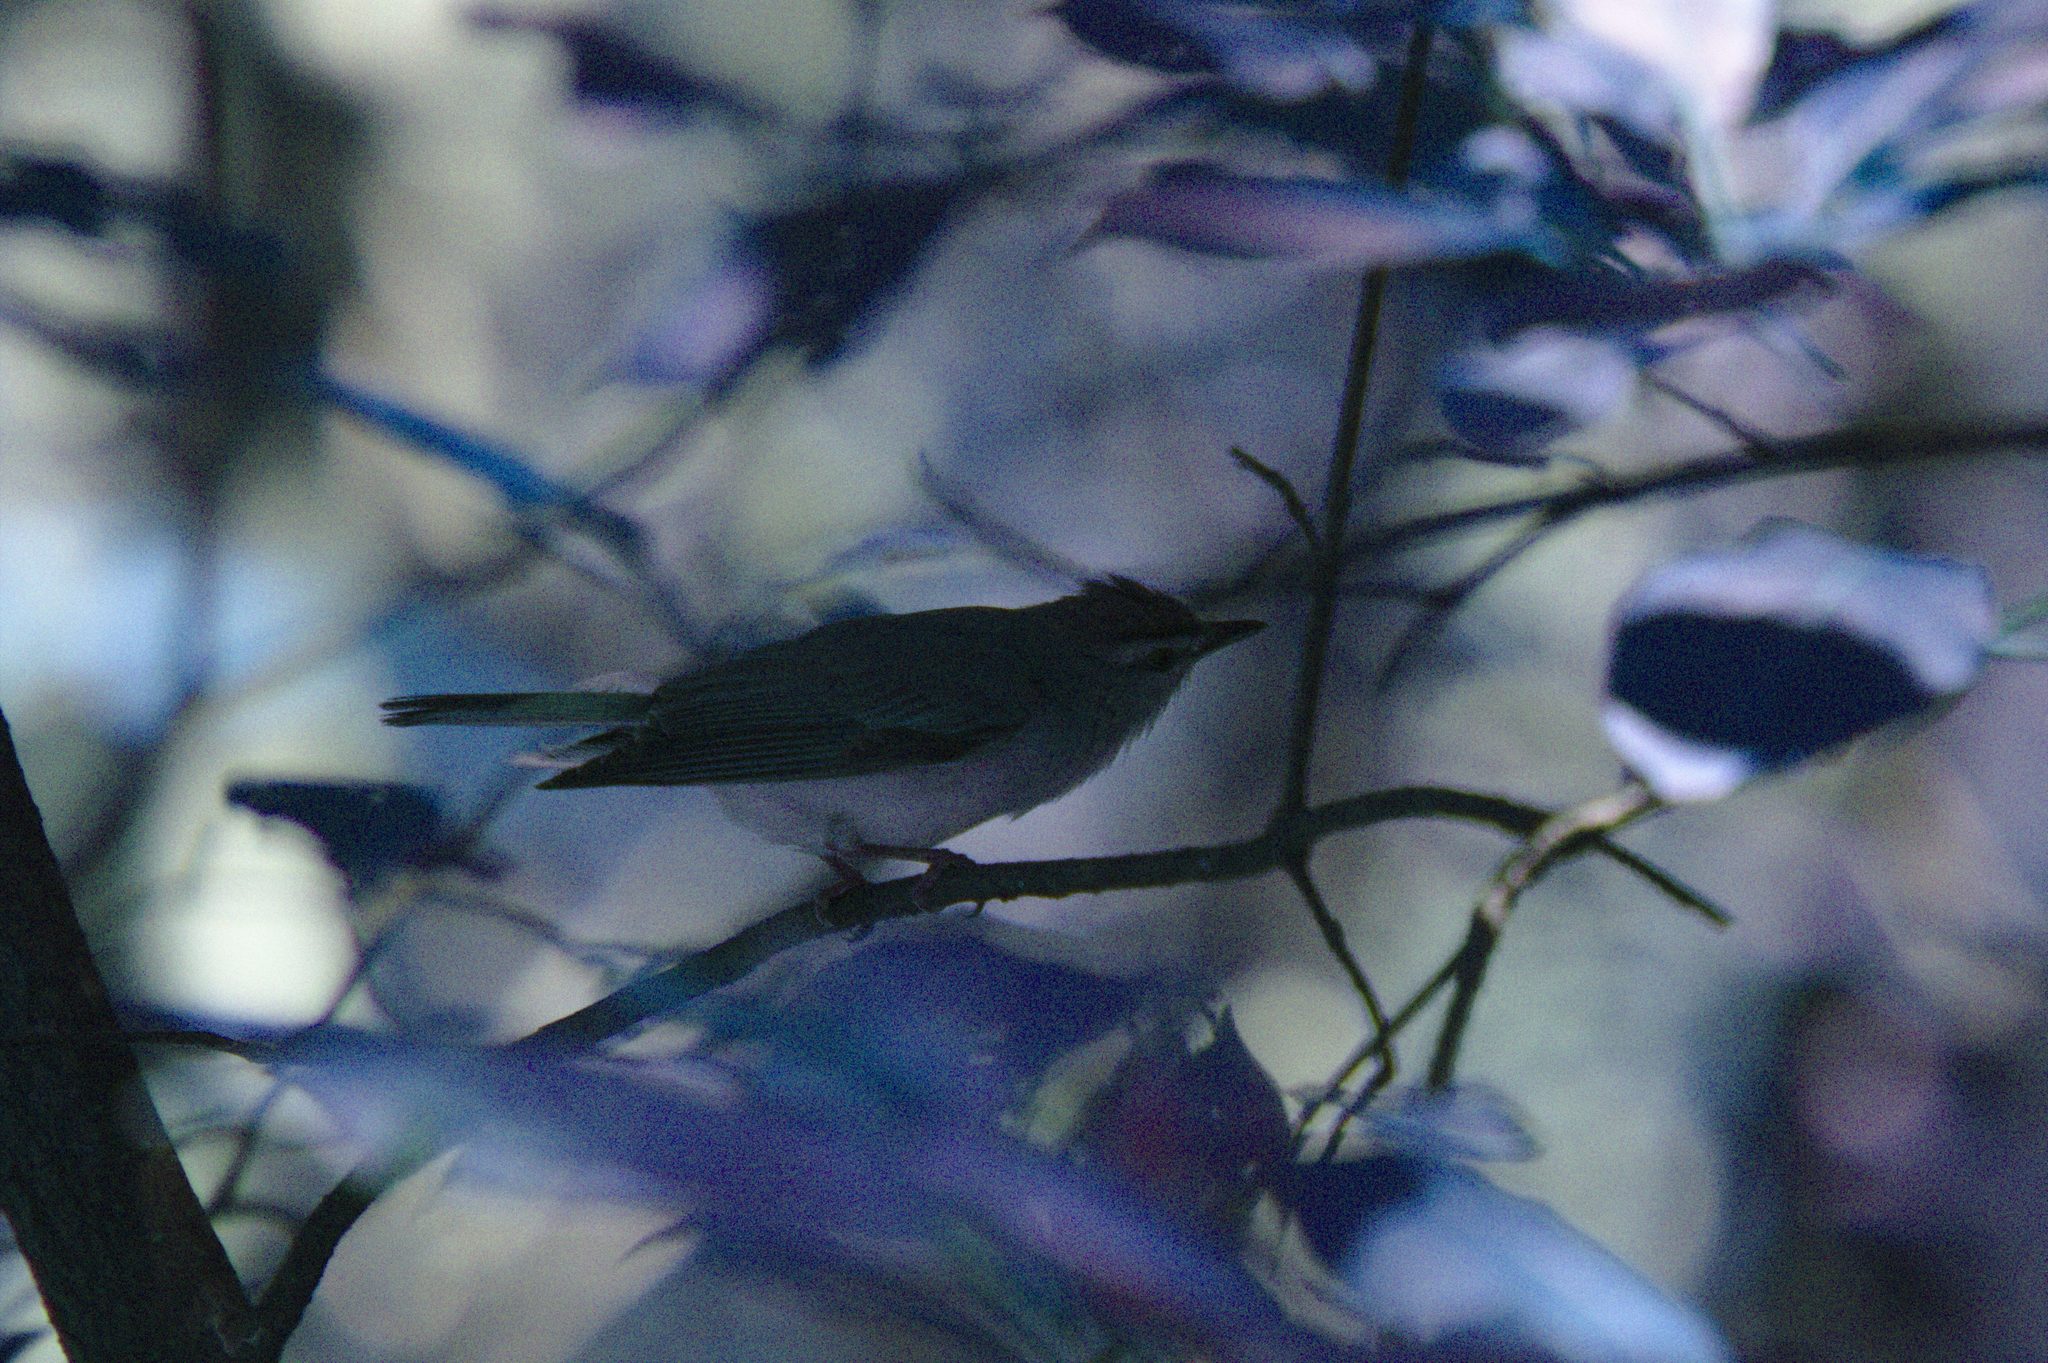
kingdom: Animalia
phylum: Chordata
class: Aves
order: Passeriformes
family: Vireonidae
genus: Vireo
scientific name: Vireo olivaceus
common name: Red-eyed vireo
